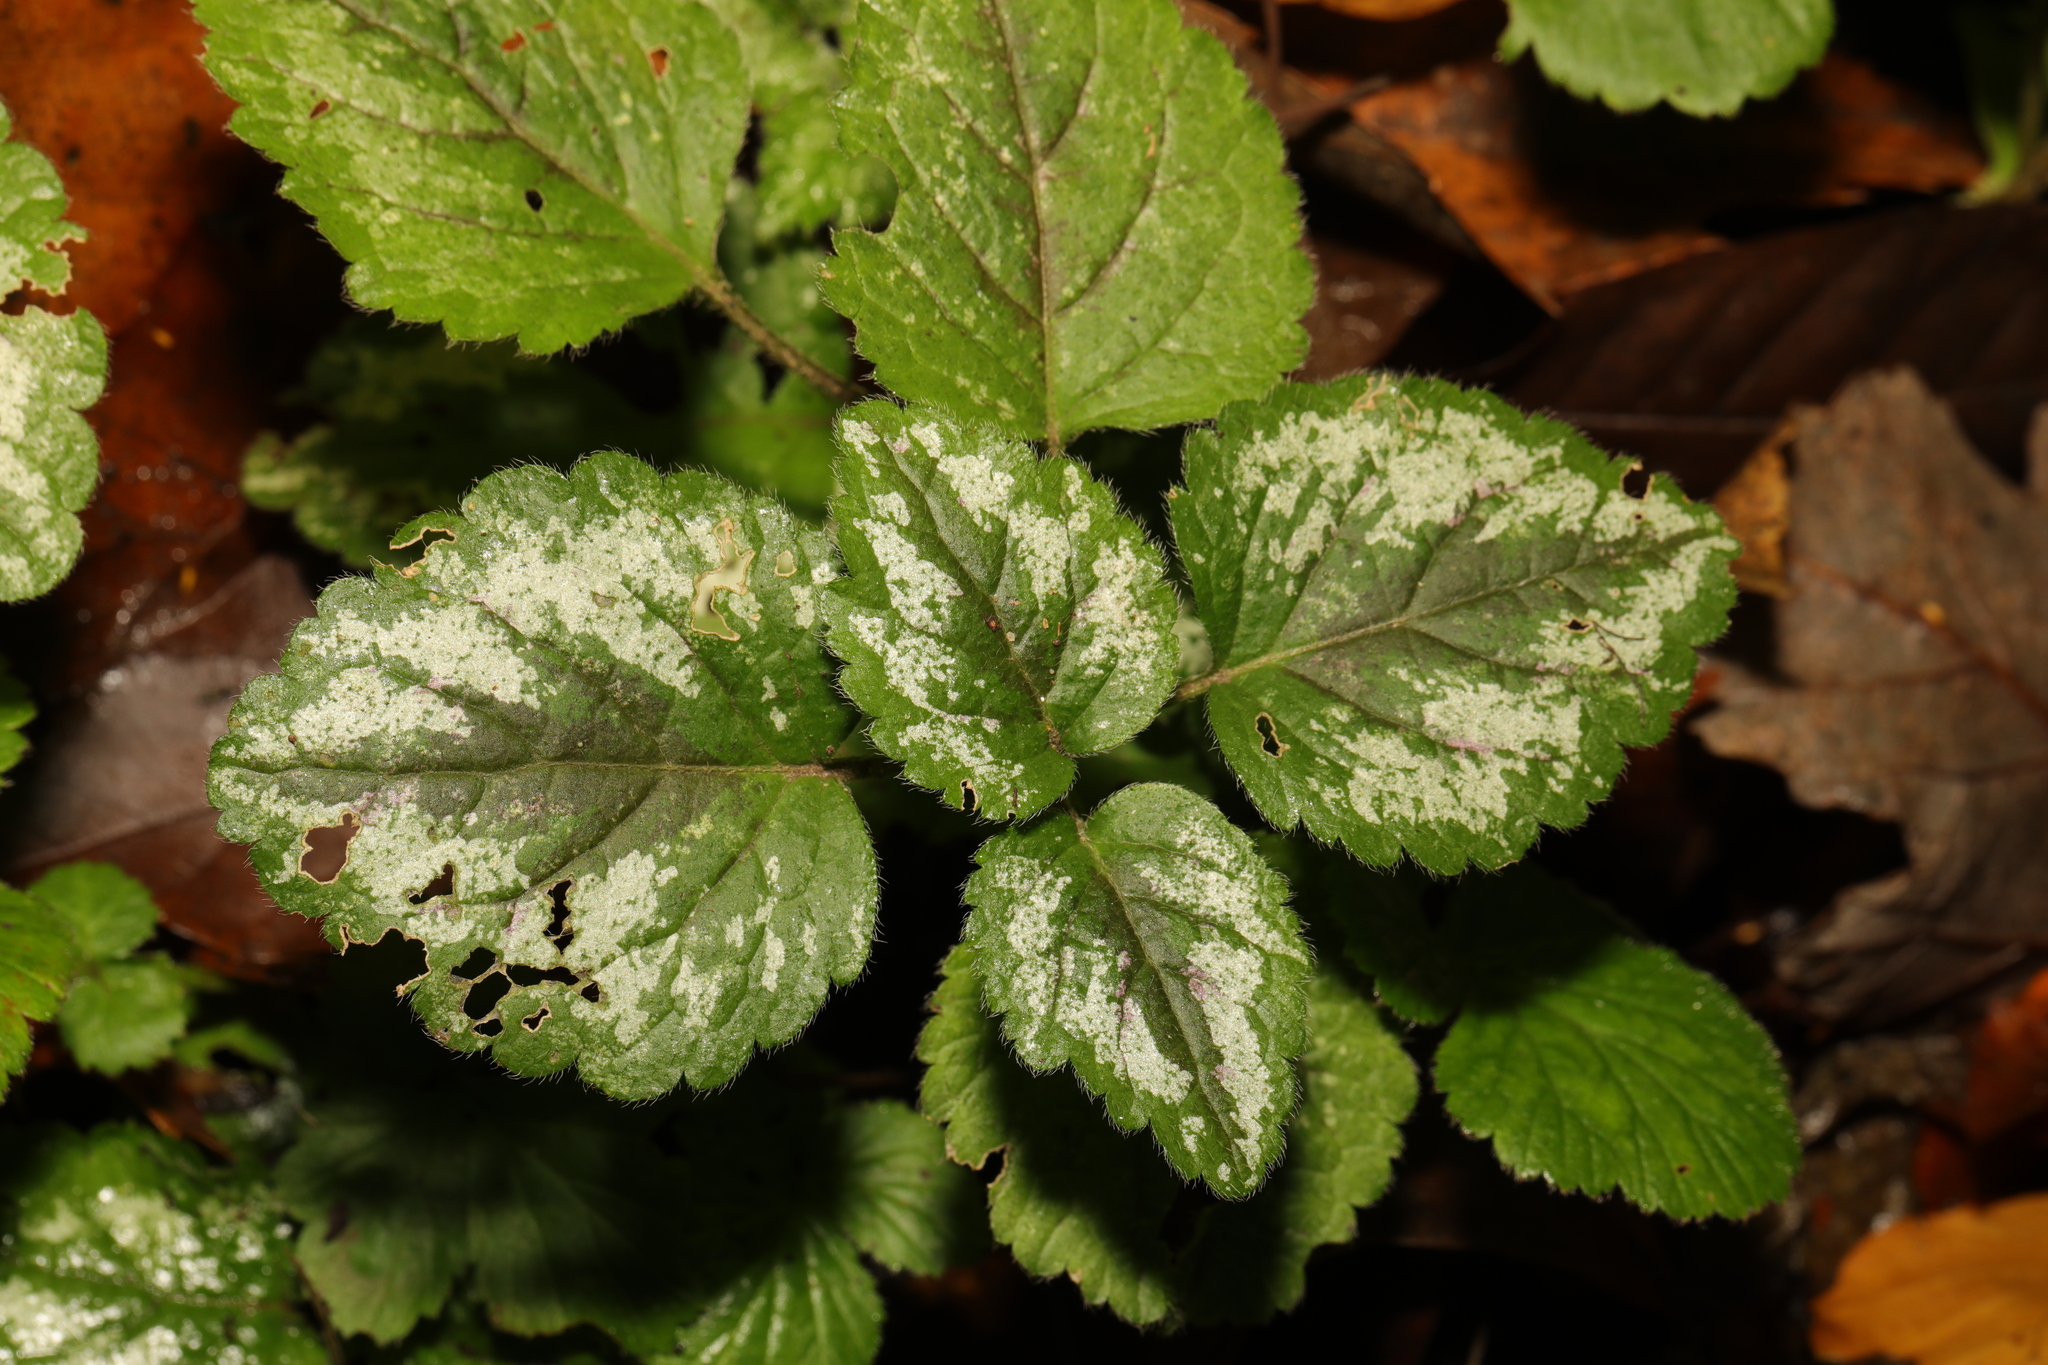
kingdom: Plantae
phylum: Tracheophyta
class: Magnoliopsida
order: Lamiales
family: Lamiaceae
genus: Lamium
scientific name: Lamium galeobdolon
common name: Yellow archangel
